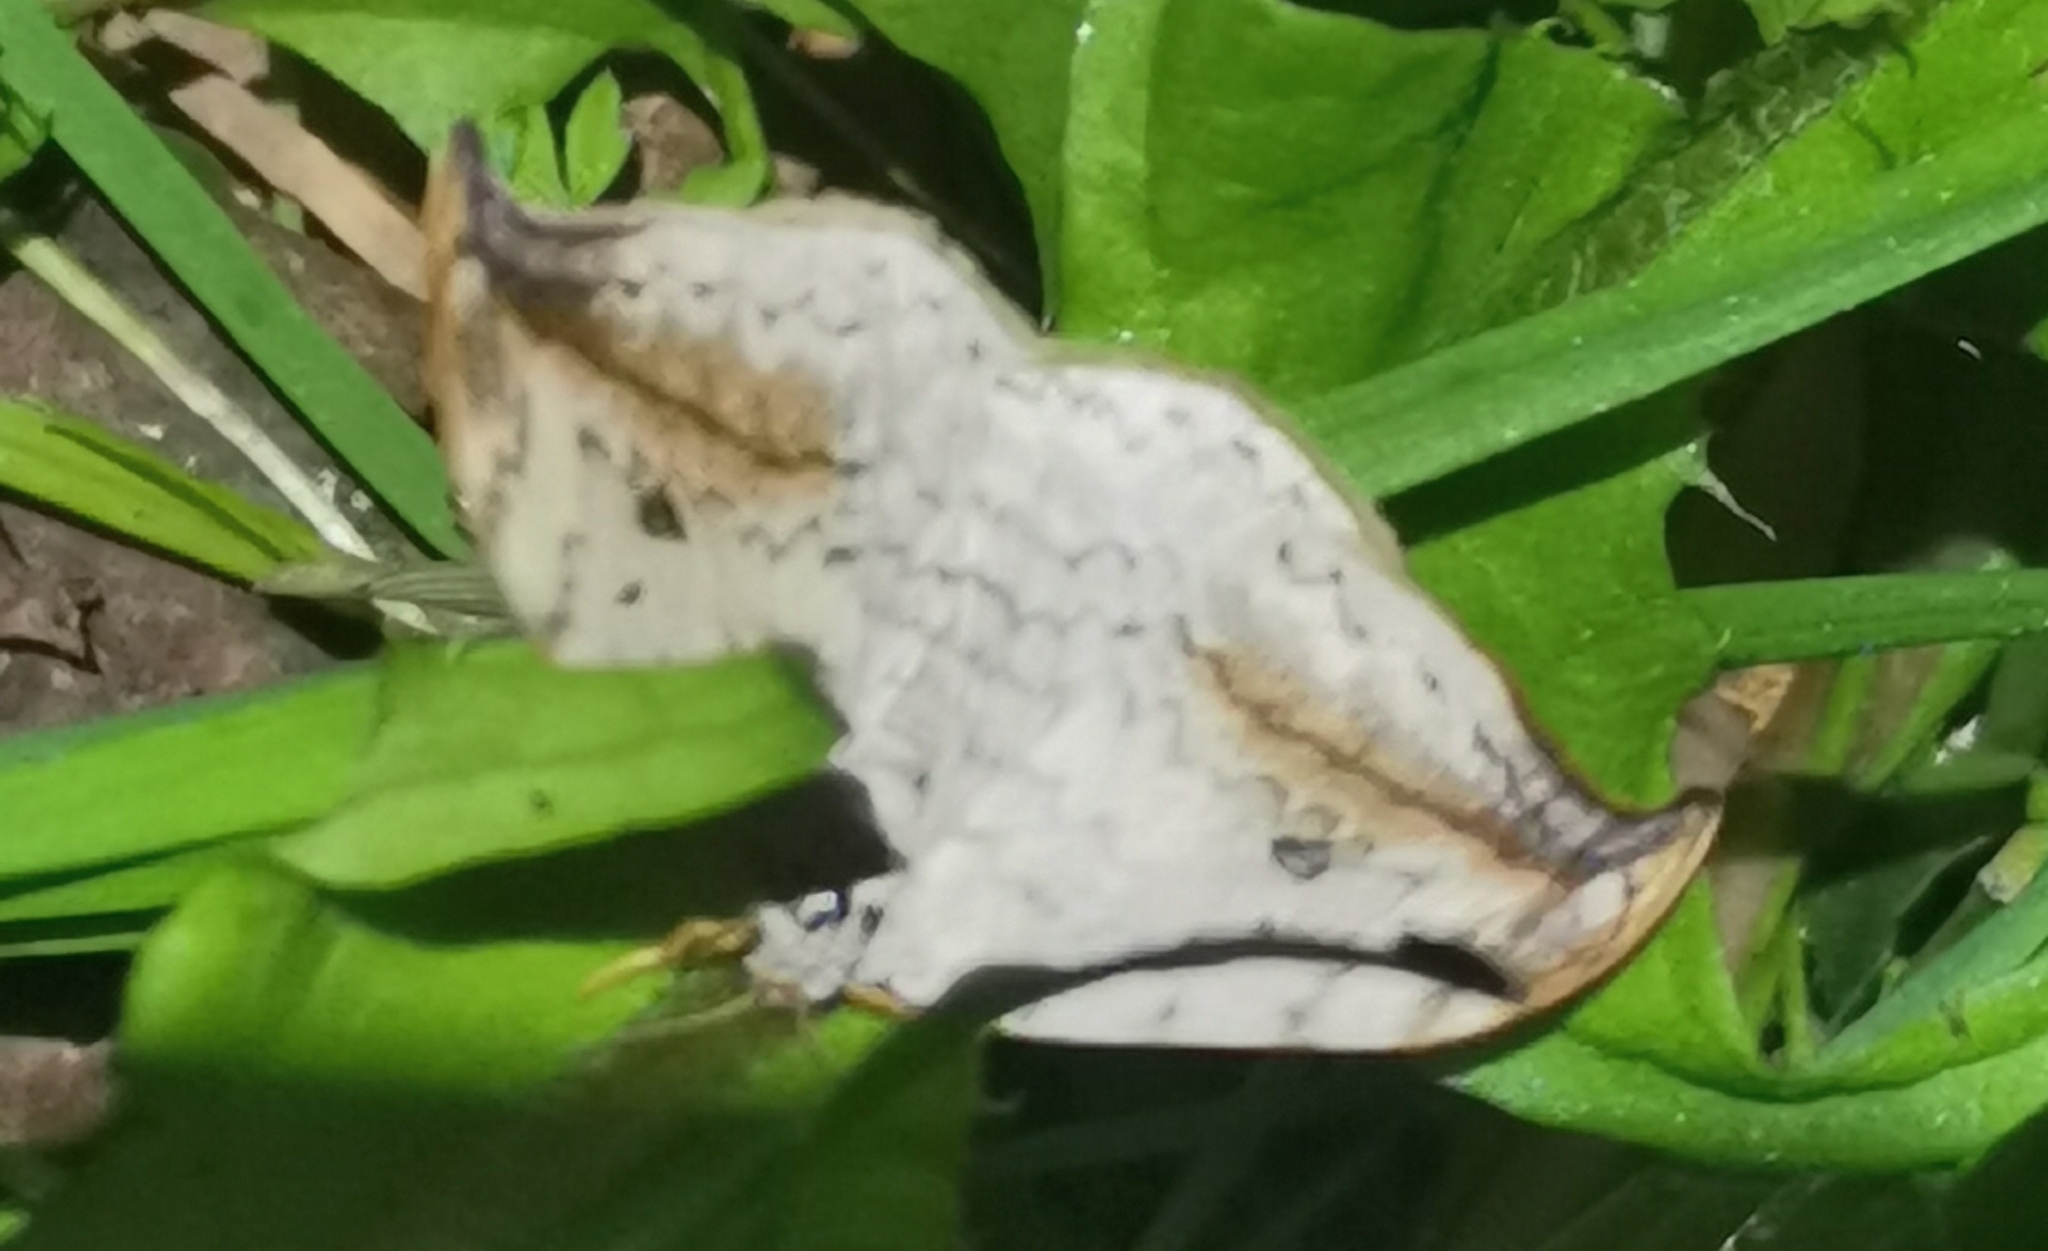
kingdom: Animalia
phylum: Arthropoda
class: Insecta
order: Lepidoptera
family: Drepanidae
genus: Drepana
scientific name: Drepana falcataria
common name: Pebble hook-tip
